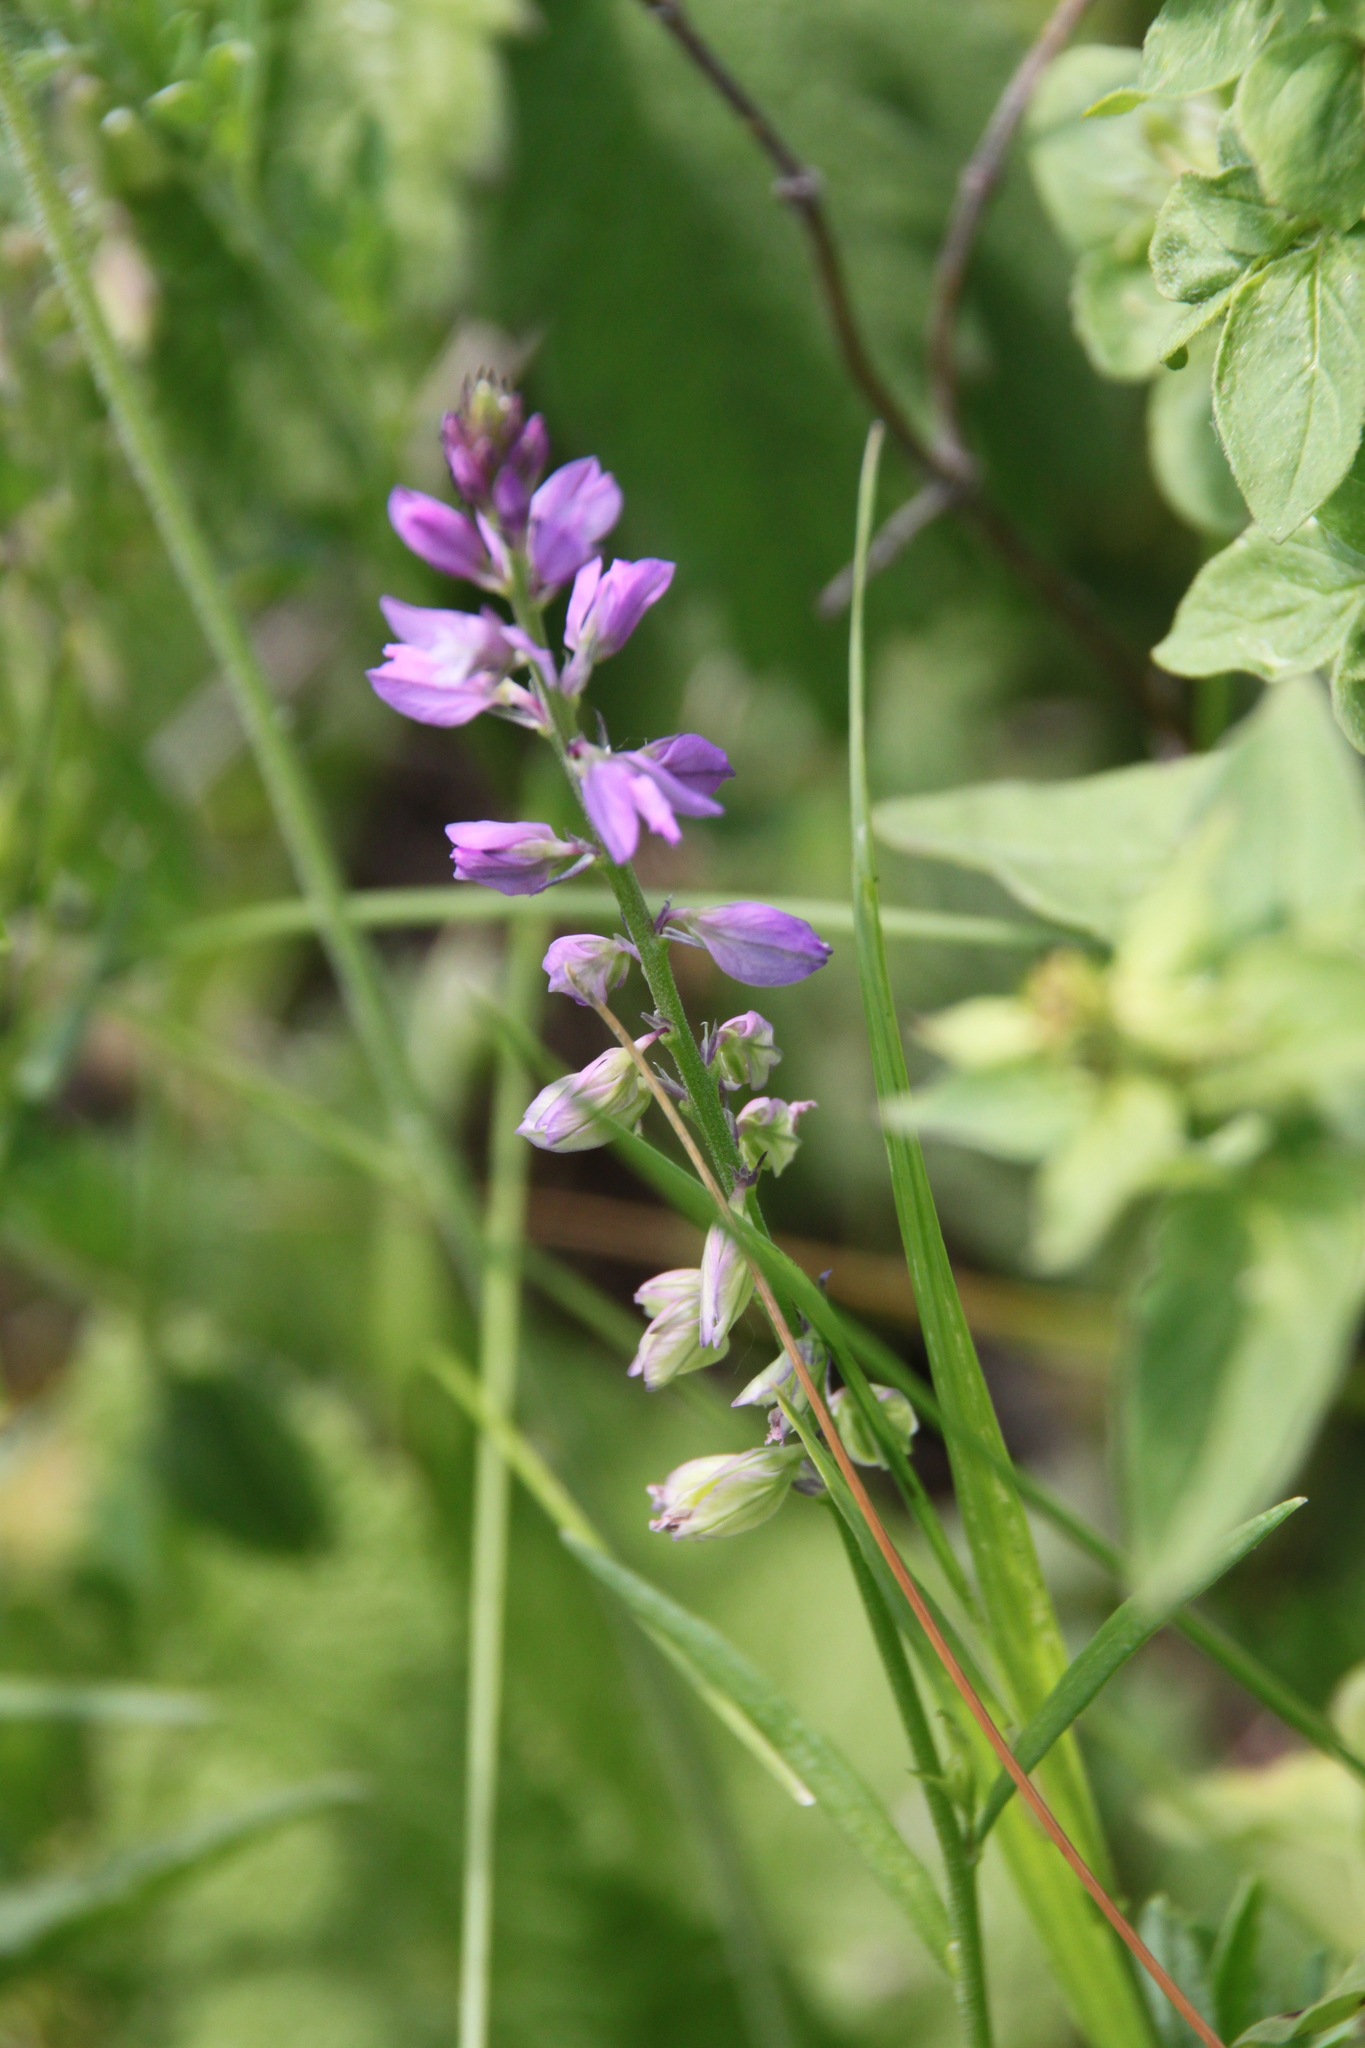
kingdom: Plantae
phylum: Tracheophyta
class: Magnoliopsida
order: Fabales
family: Polygalaceae
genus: Polygala
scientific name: Polygala comosa
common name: Tufted milkwort
